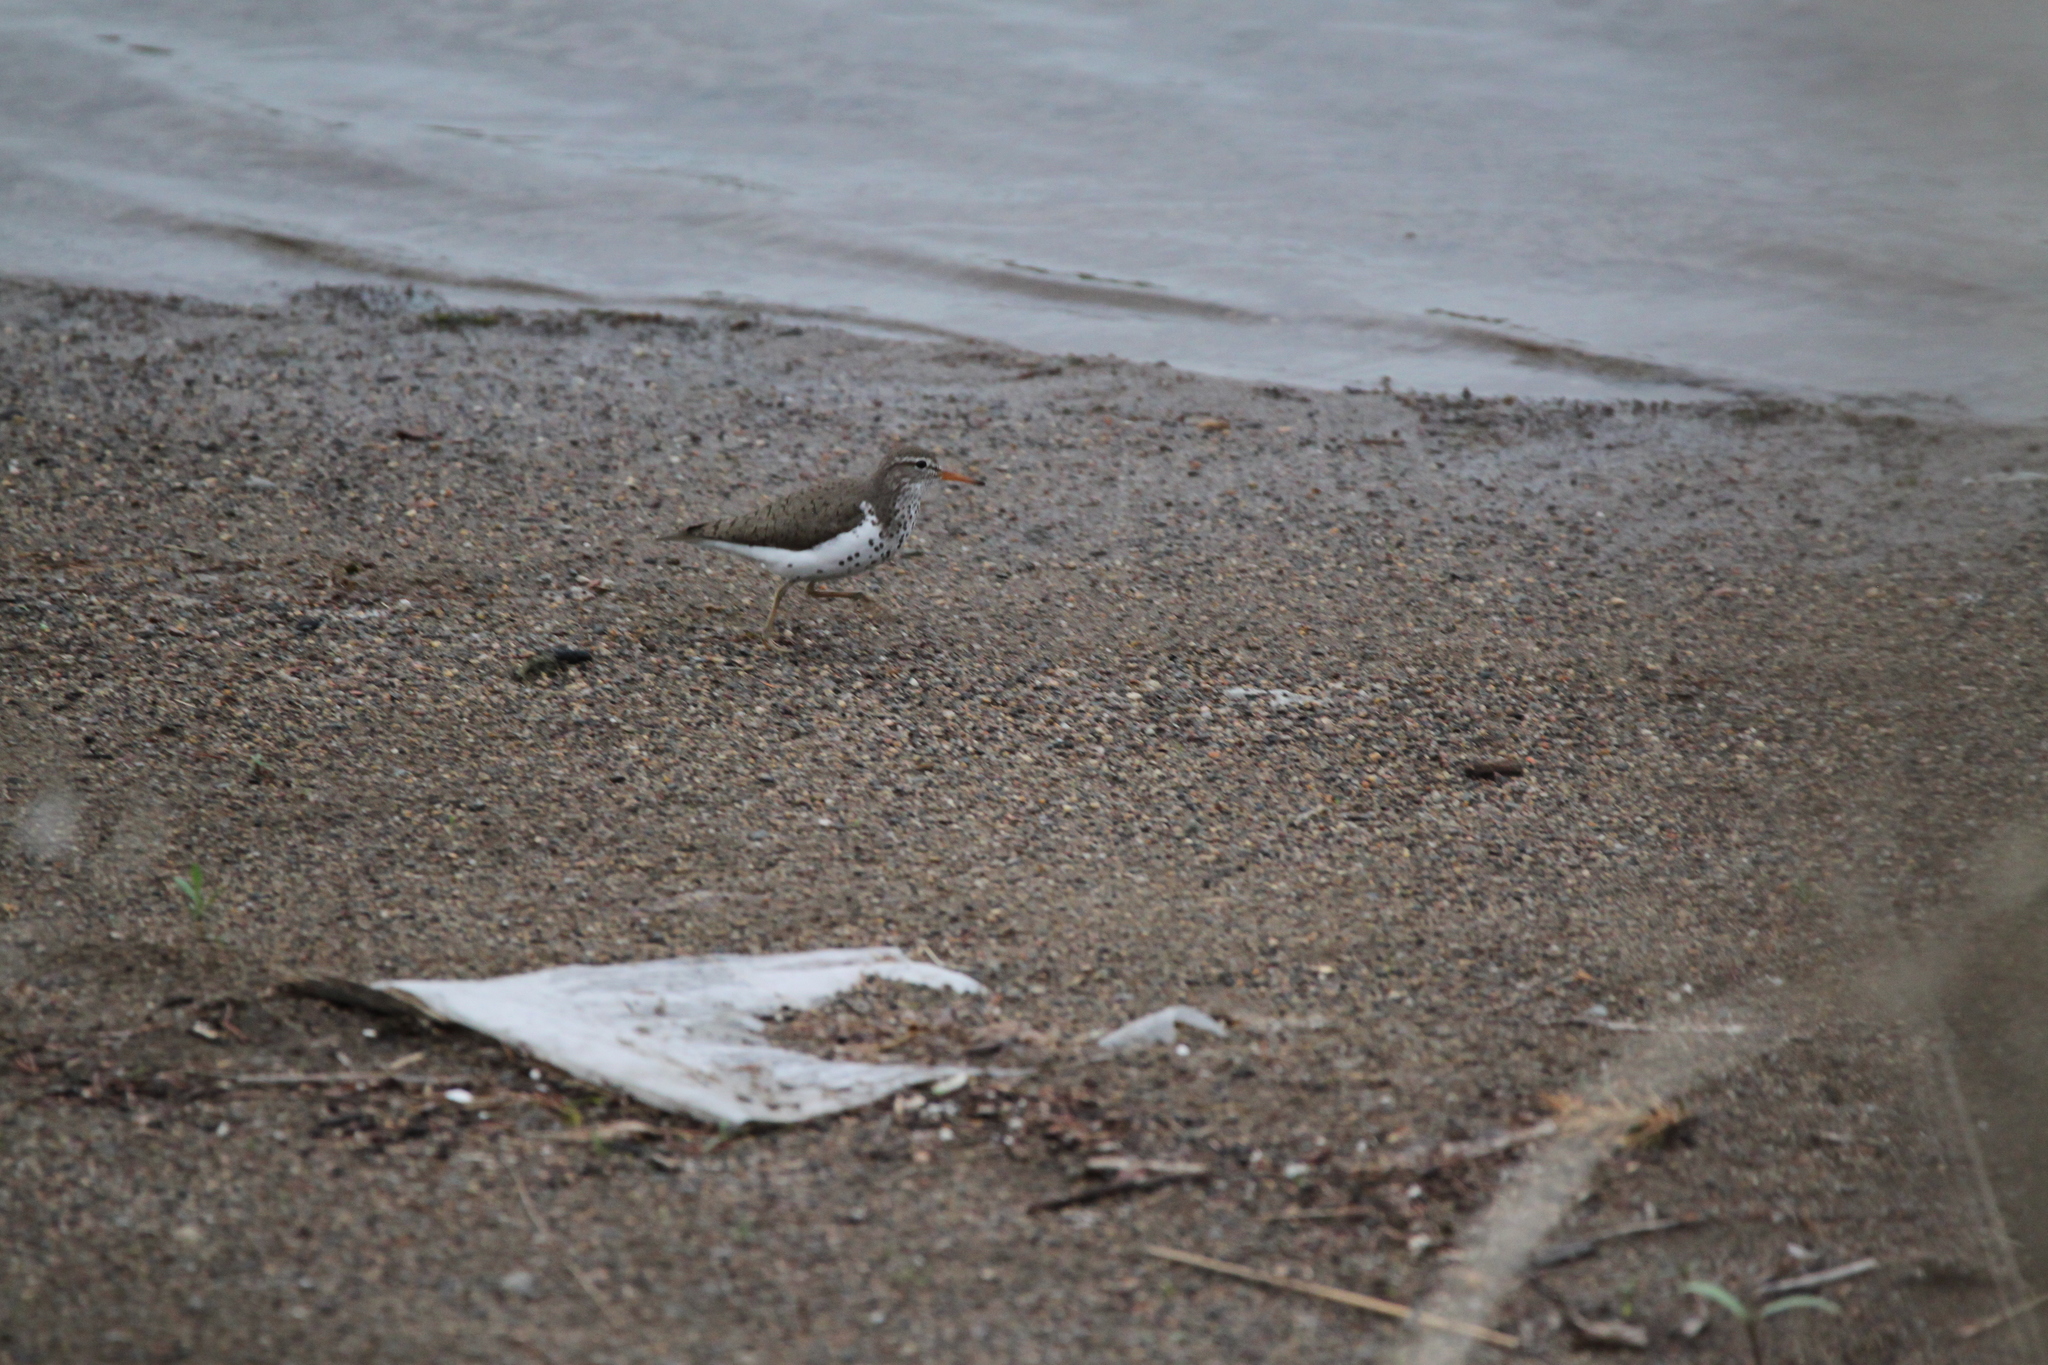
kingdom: Animalia
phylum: Chordata
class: Aves
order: Charadriiformes
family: Scolopacidae
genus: Actitis
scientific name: Actitis macularius
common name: Spotted sandpiper
